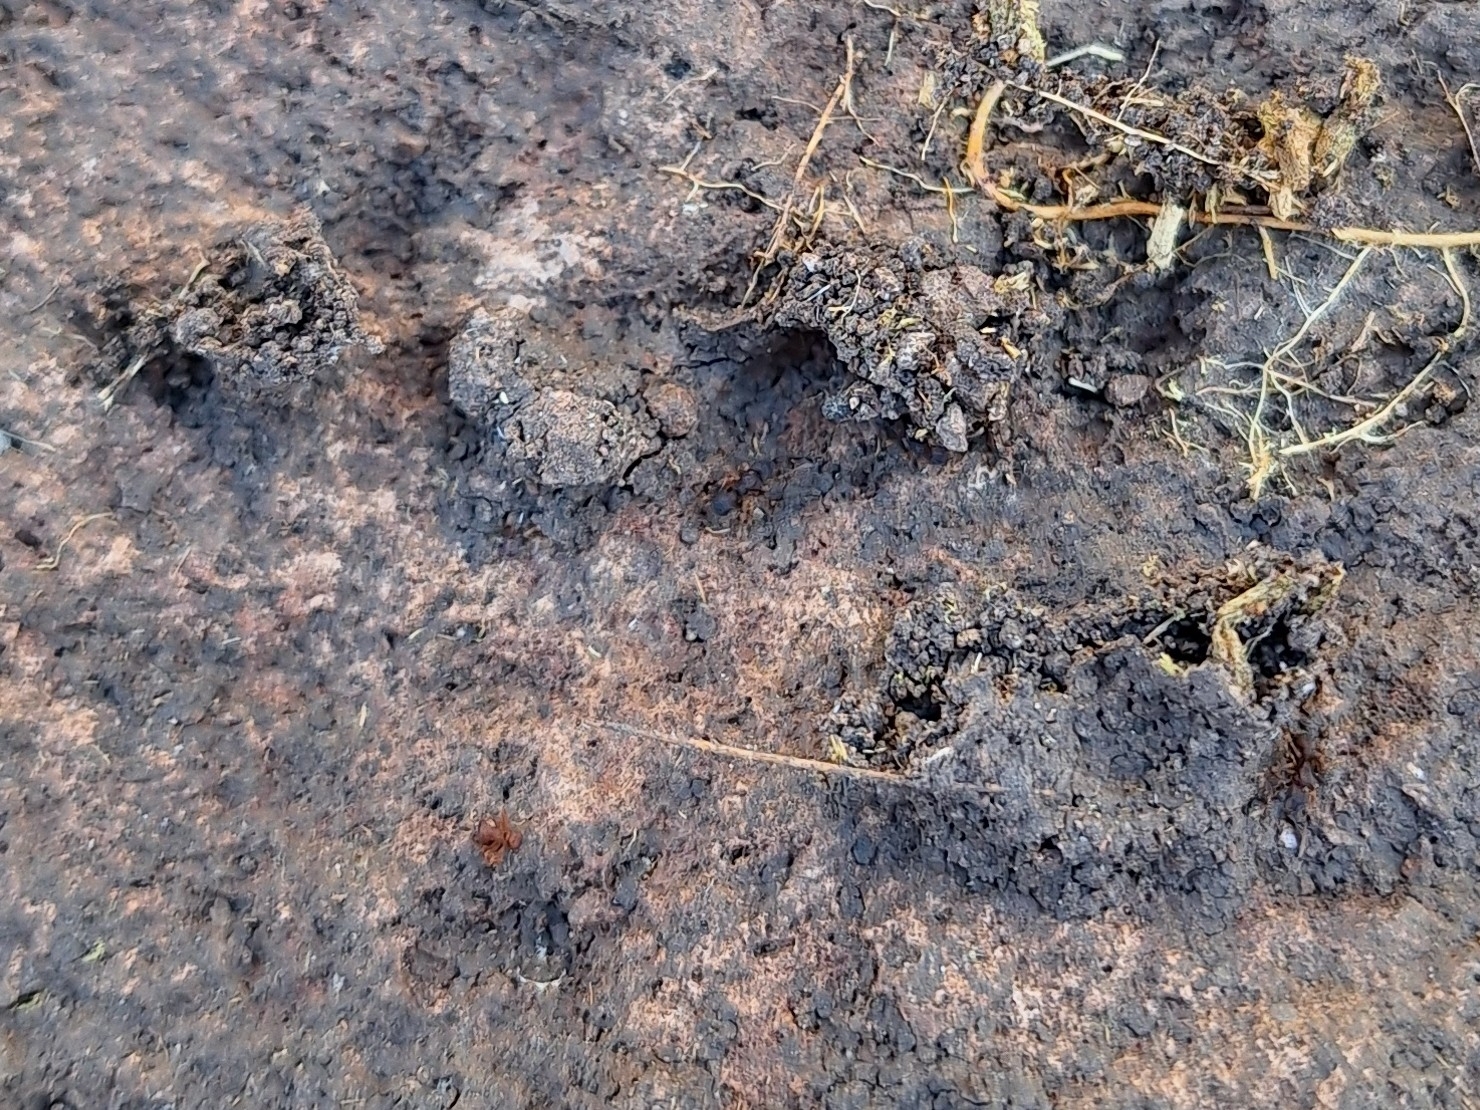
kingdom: Animalia
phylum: Arthropoda
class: Insecta
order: Hymenoptera
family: Formicidae
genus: Cyphomyrmex
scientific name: Cyphomyrmex flavidus
